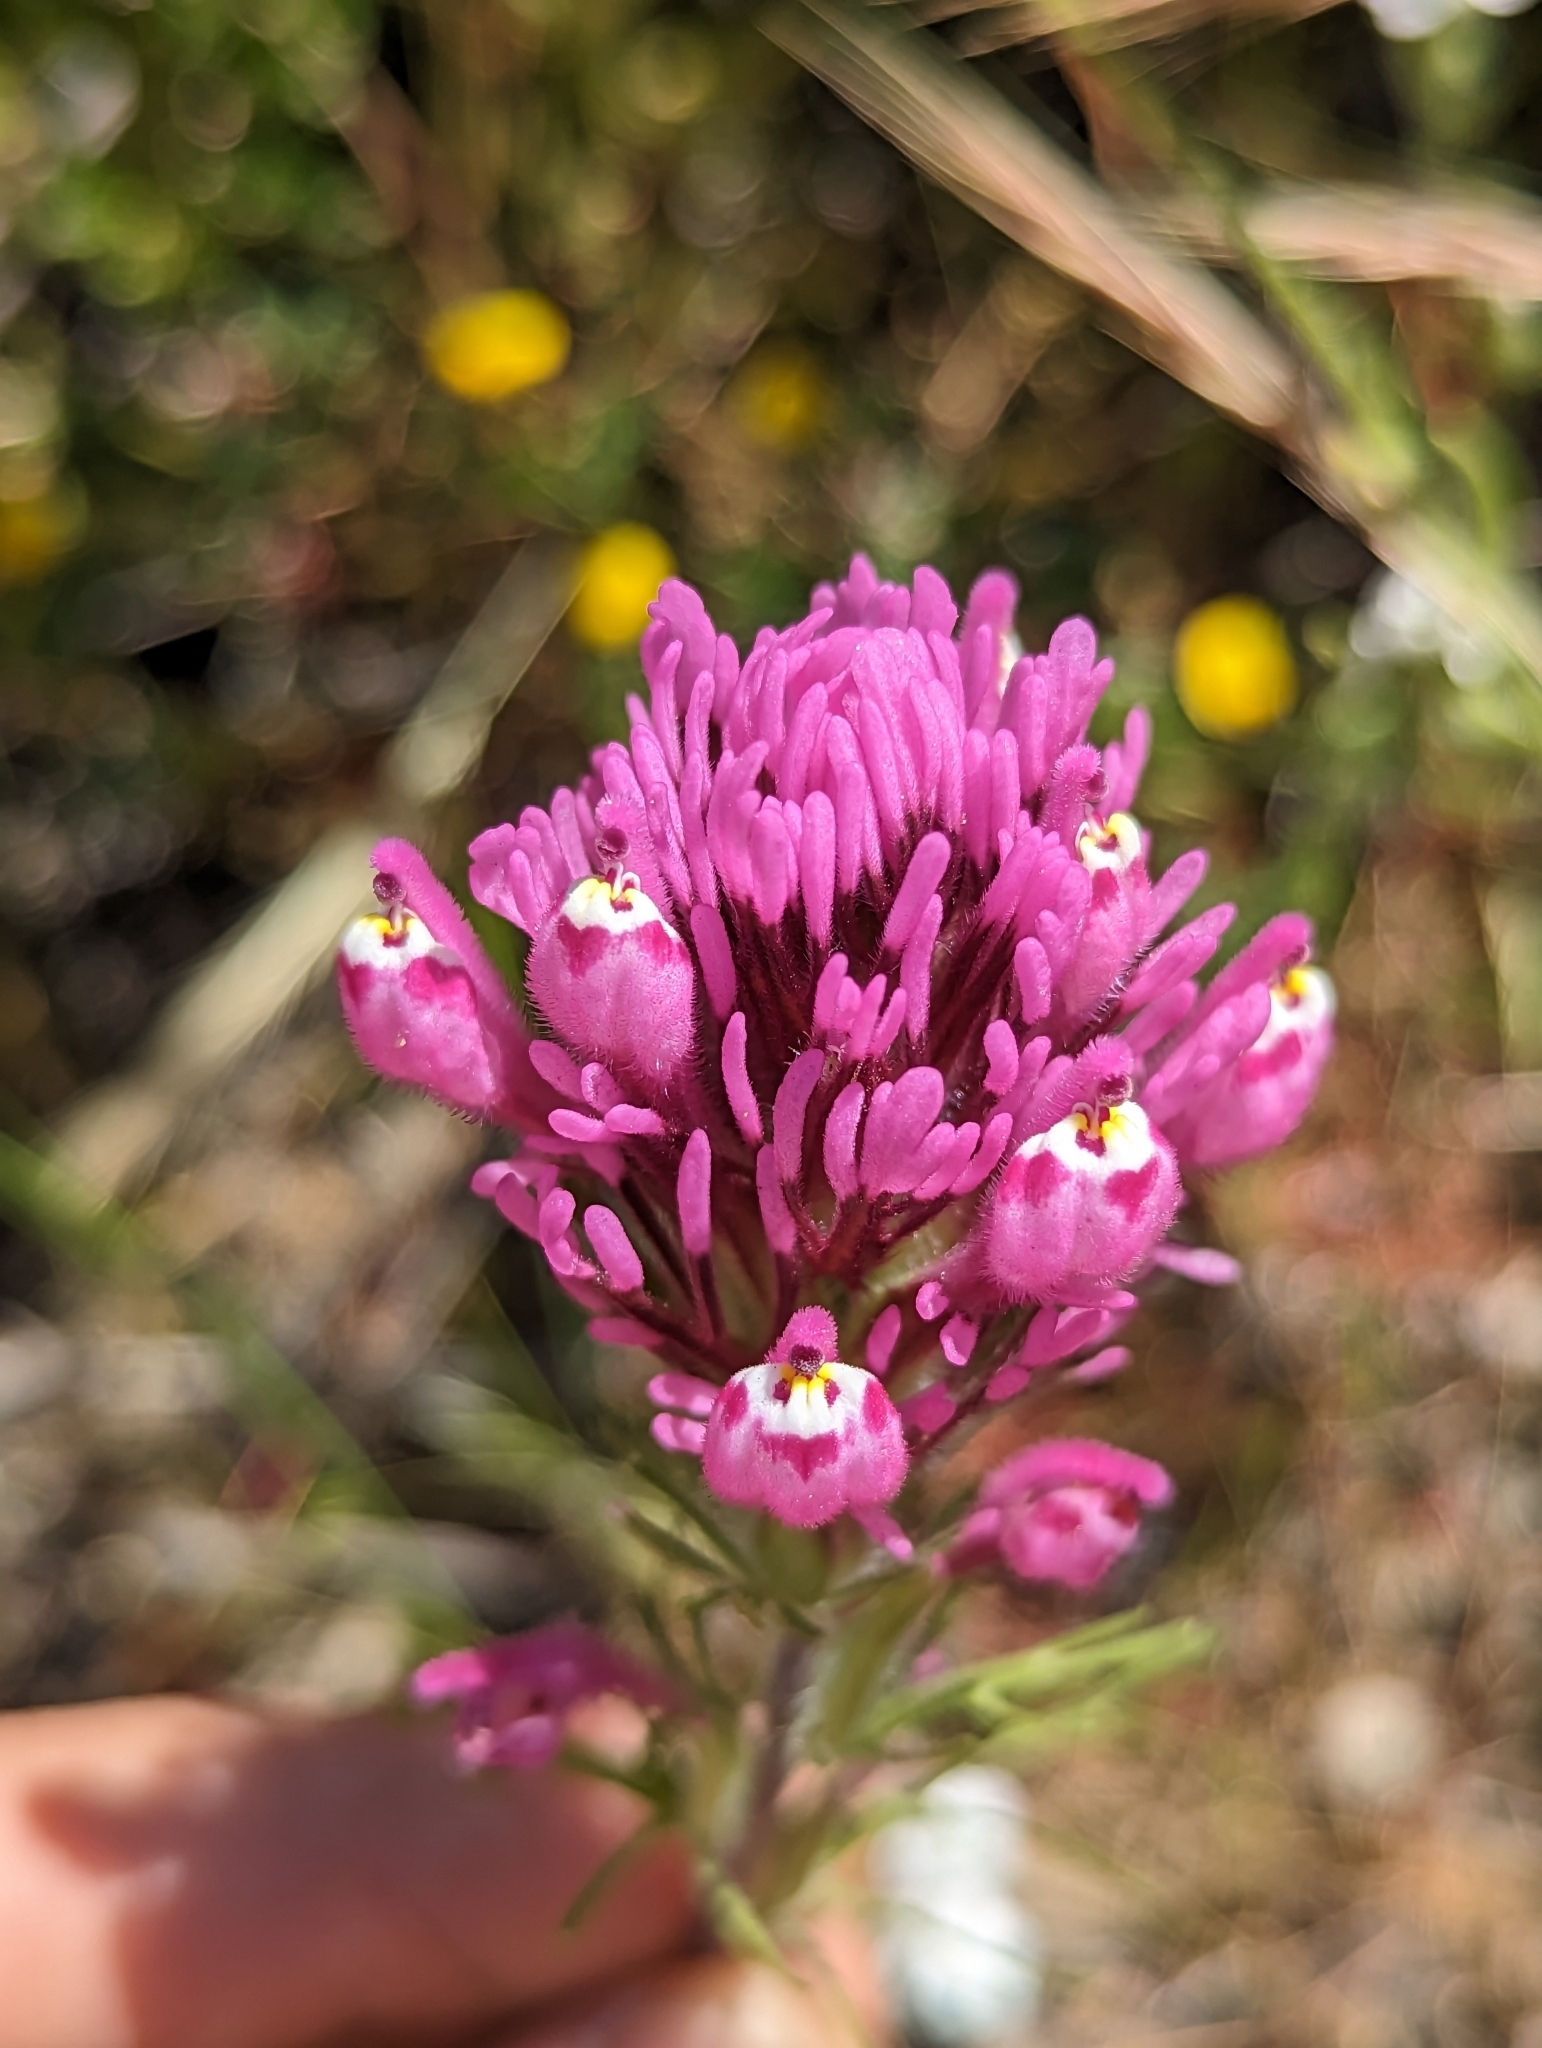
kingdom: Plantae
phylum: Tracheophyta
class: Magnoliopsida
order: Lamiales
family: Orobanchaceae
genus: Castilleja
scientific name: Castilleja exserta
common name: Purple owl-clover
